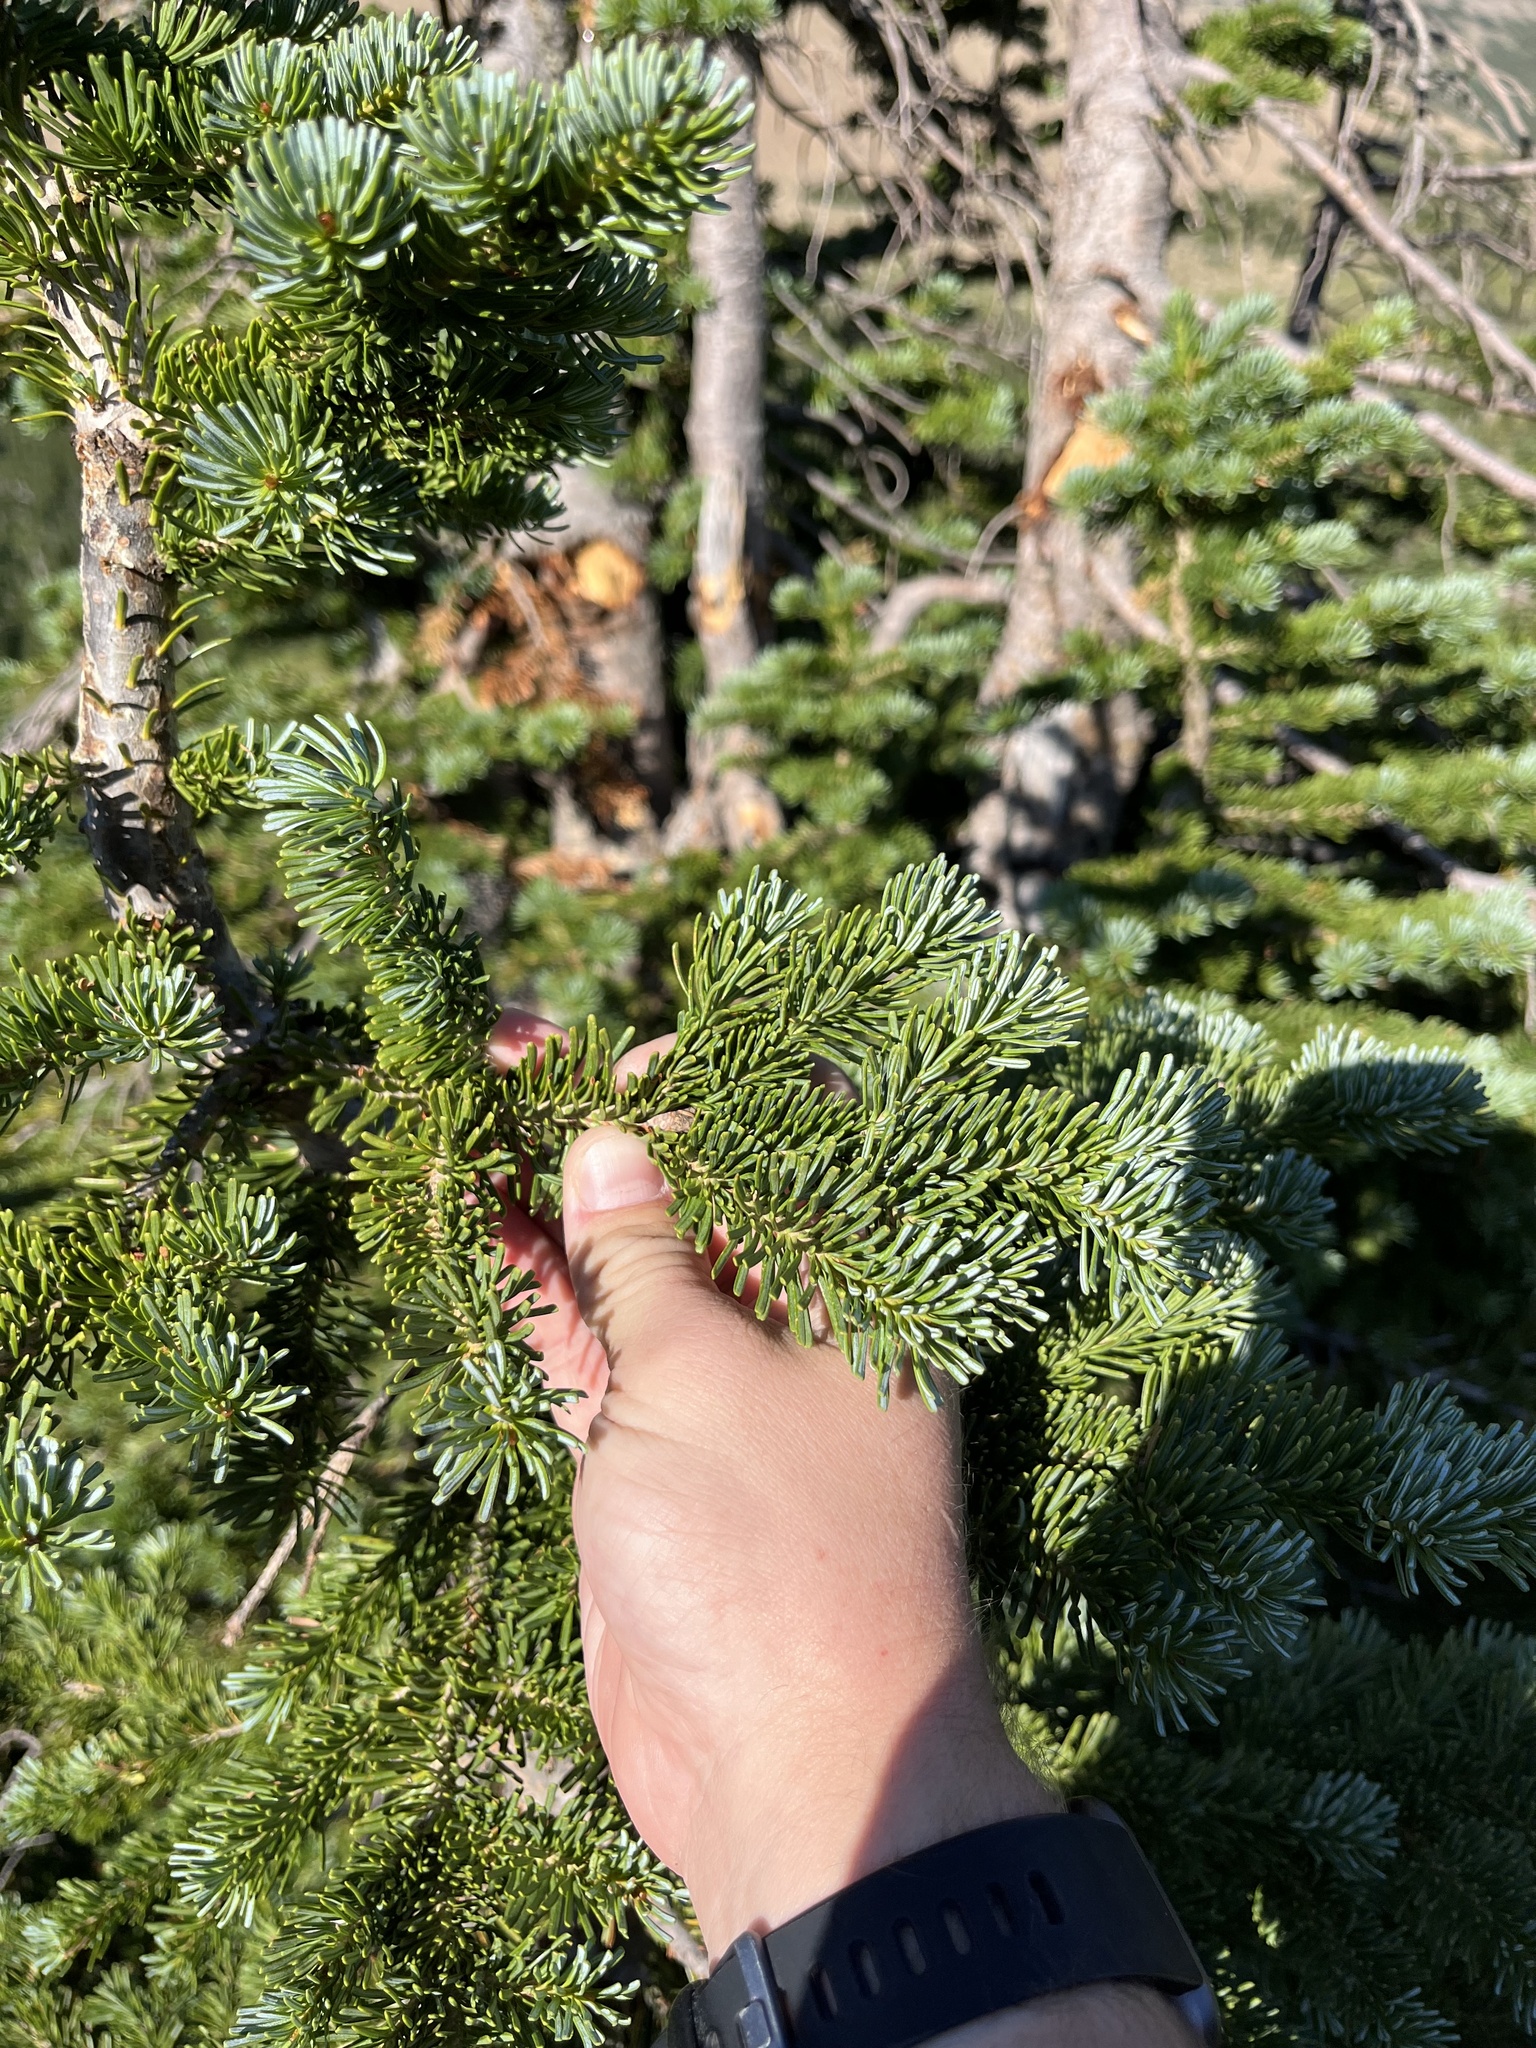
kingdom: Plantae
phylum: Tracheophyta
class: Pinopsida
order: Pinales
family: Pinaceae
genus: Abies
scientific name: Abies lasiocarpa
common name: Subalpine fir
